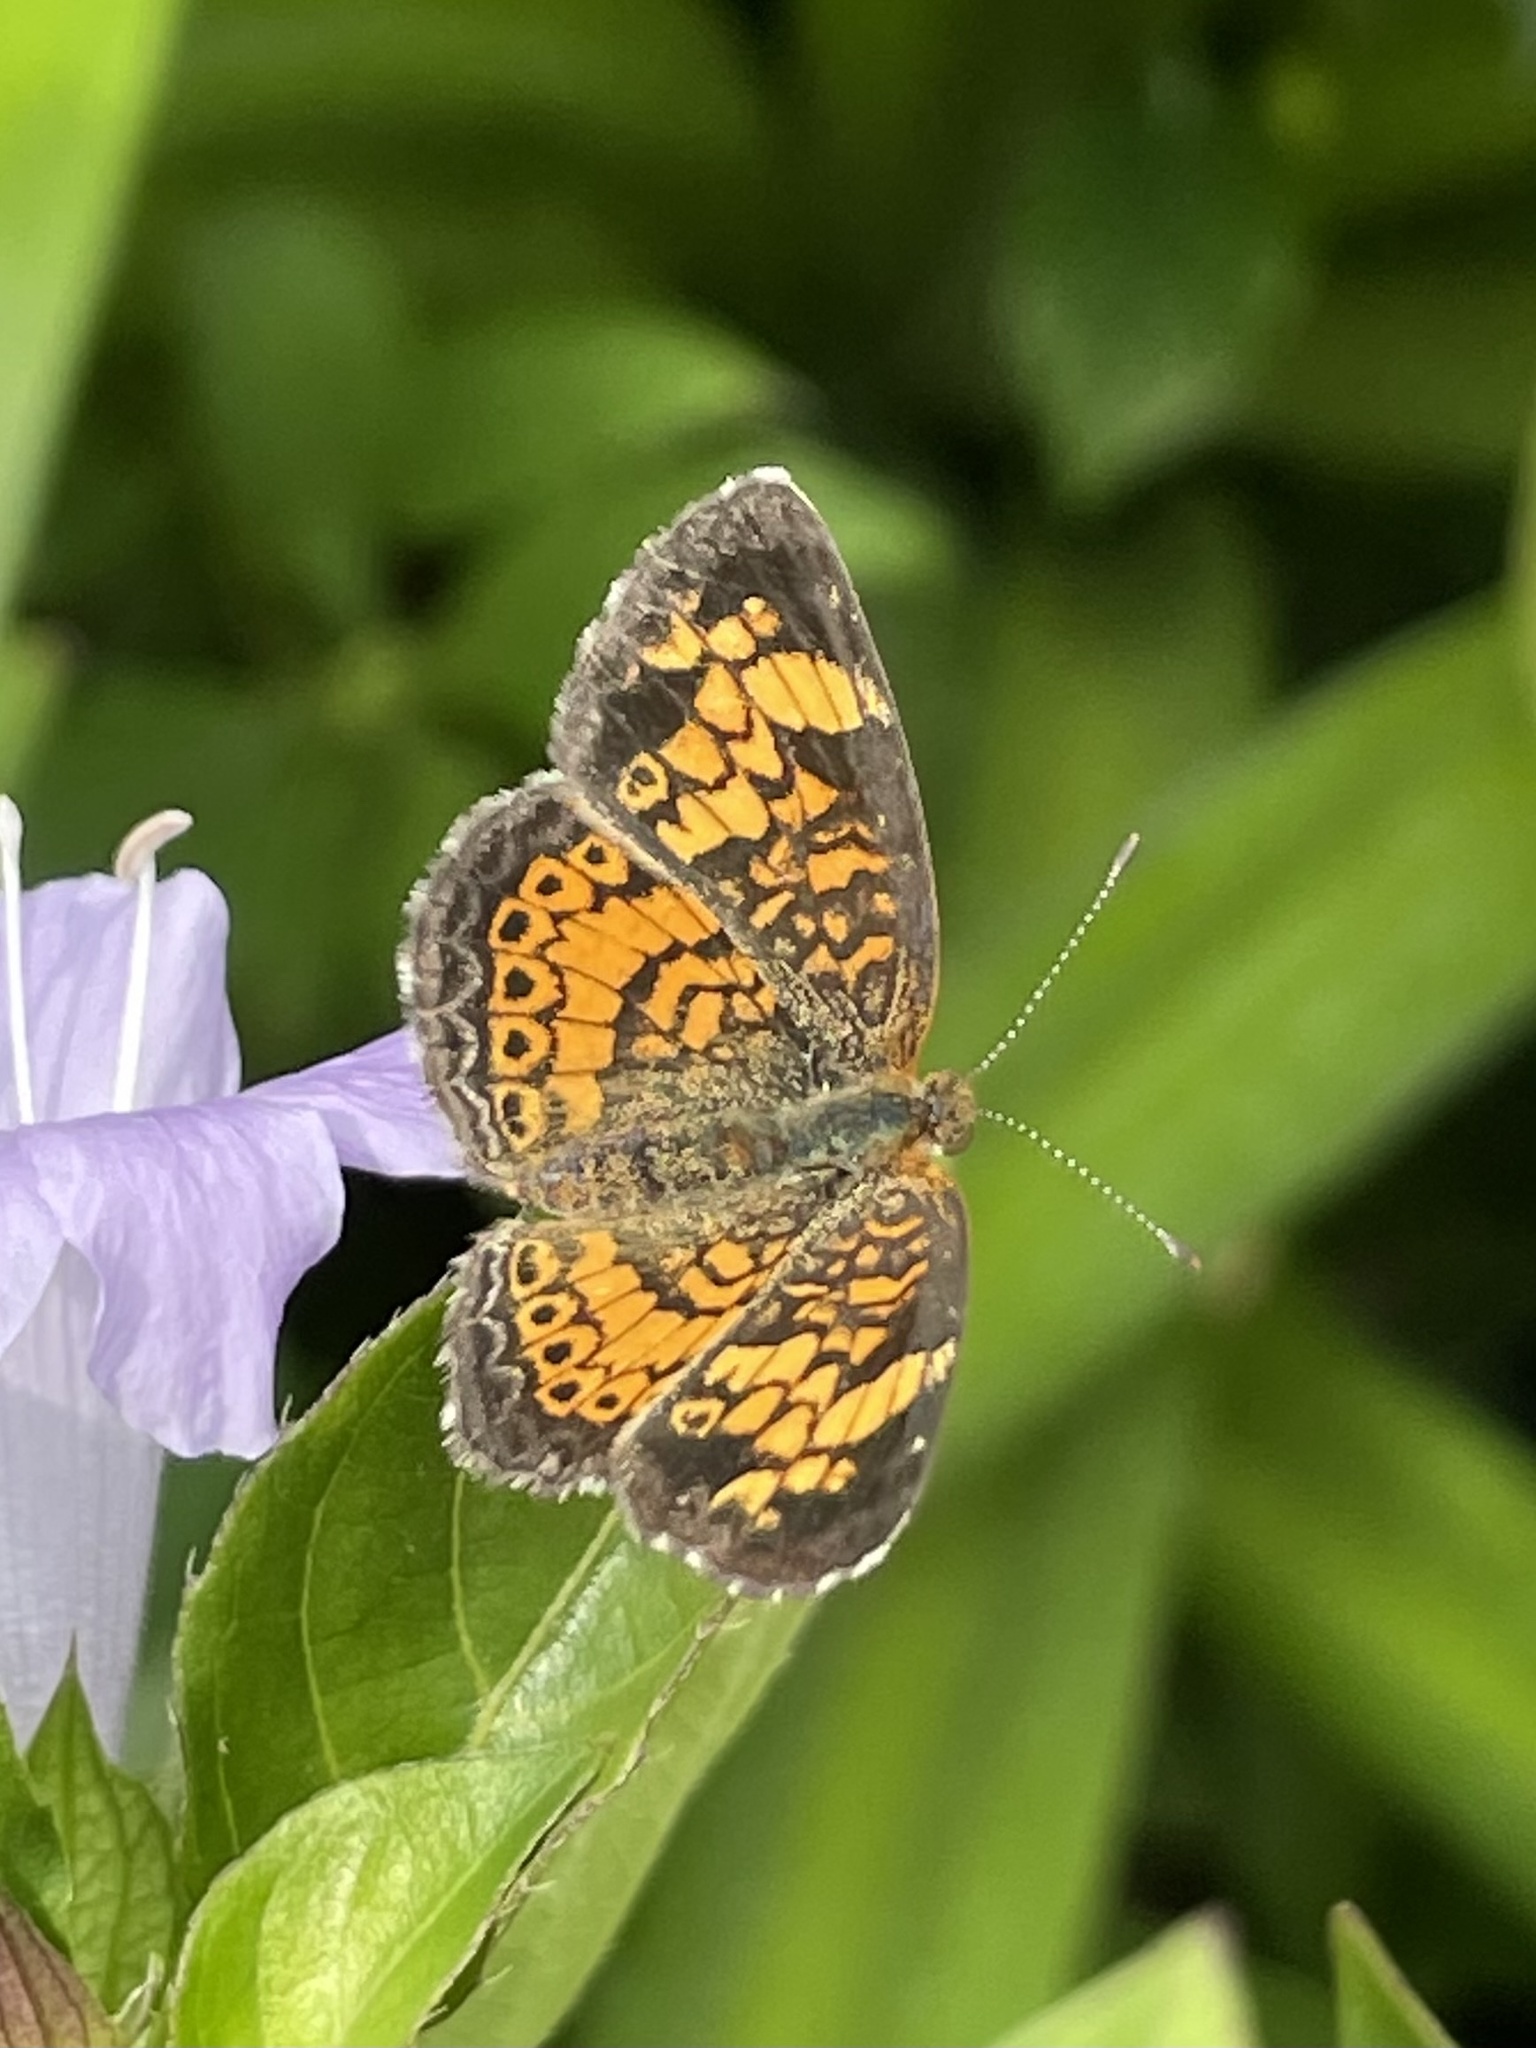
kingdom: Animalia
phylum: Arthropoda
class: Insecta
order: Lepidoptera
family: Nymphalidae
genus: Phyciodes
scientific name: Phyciodes tharos
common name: Pearl crescent
